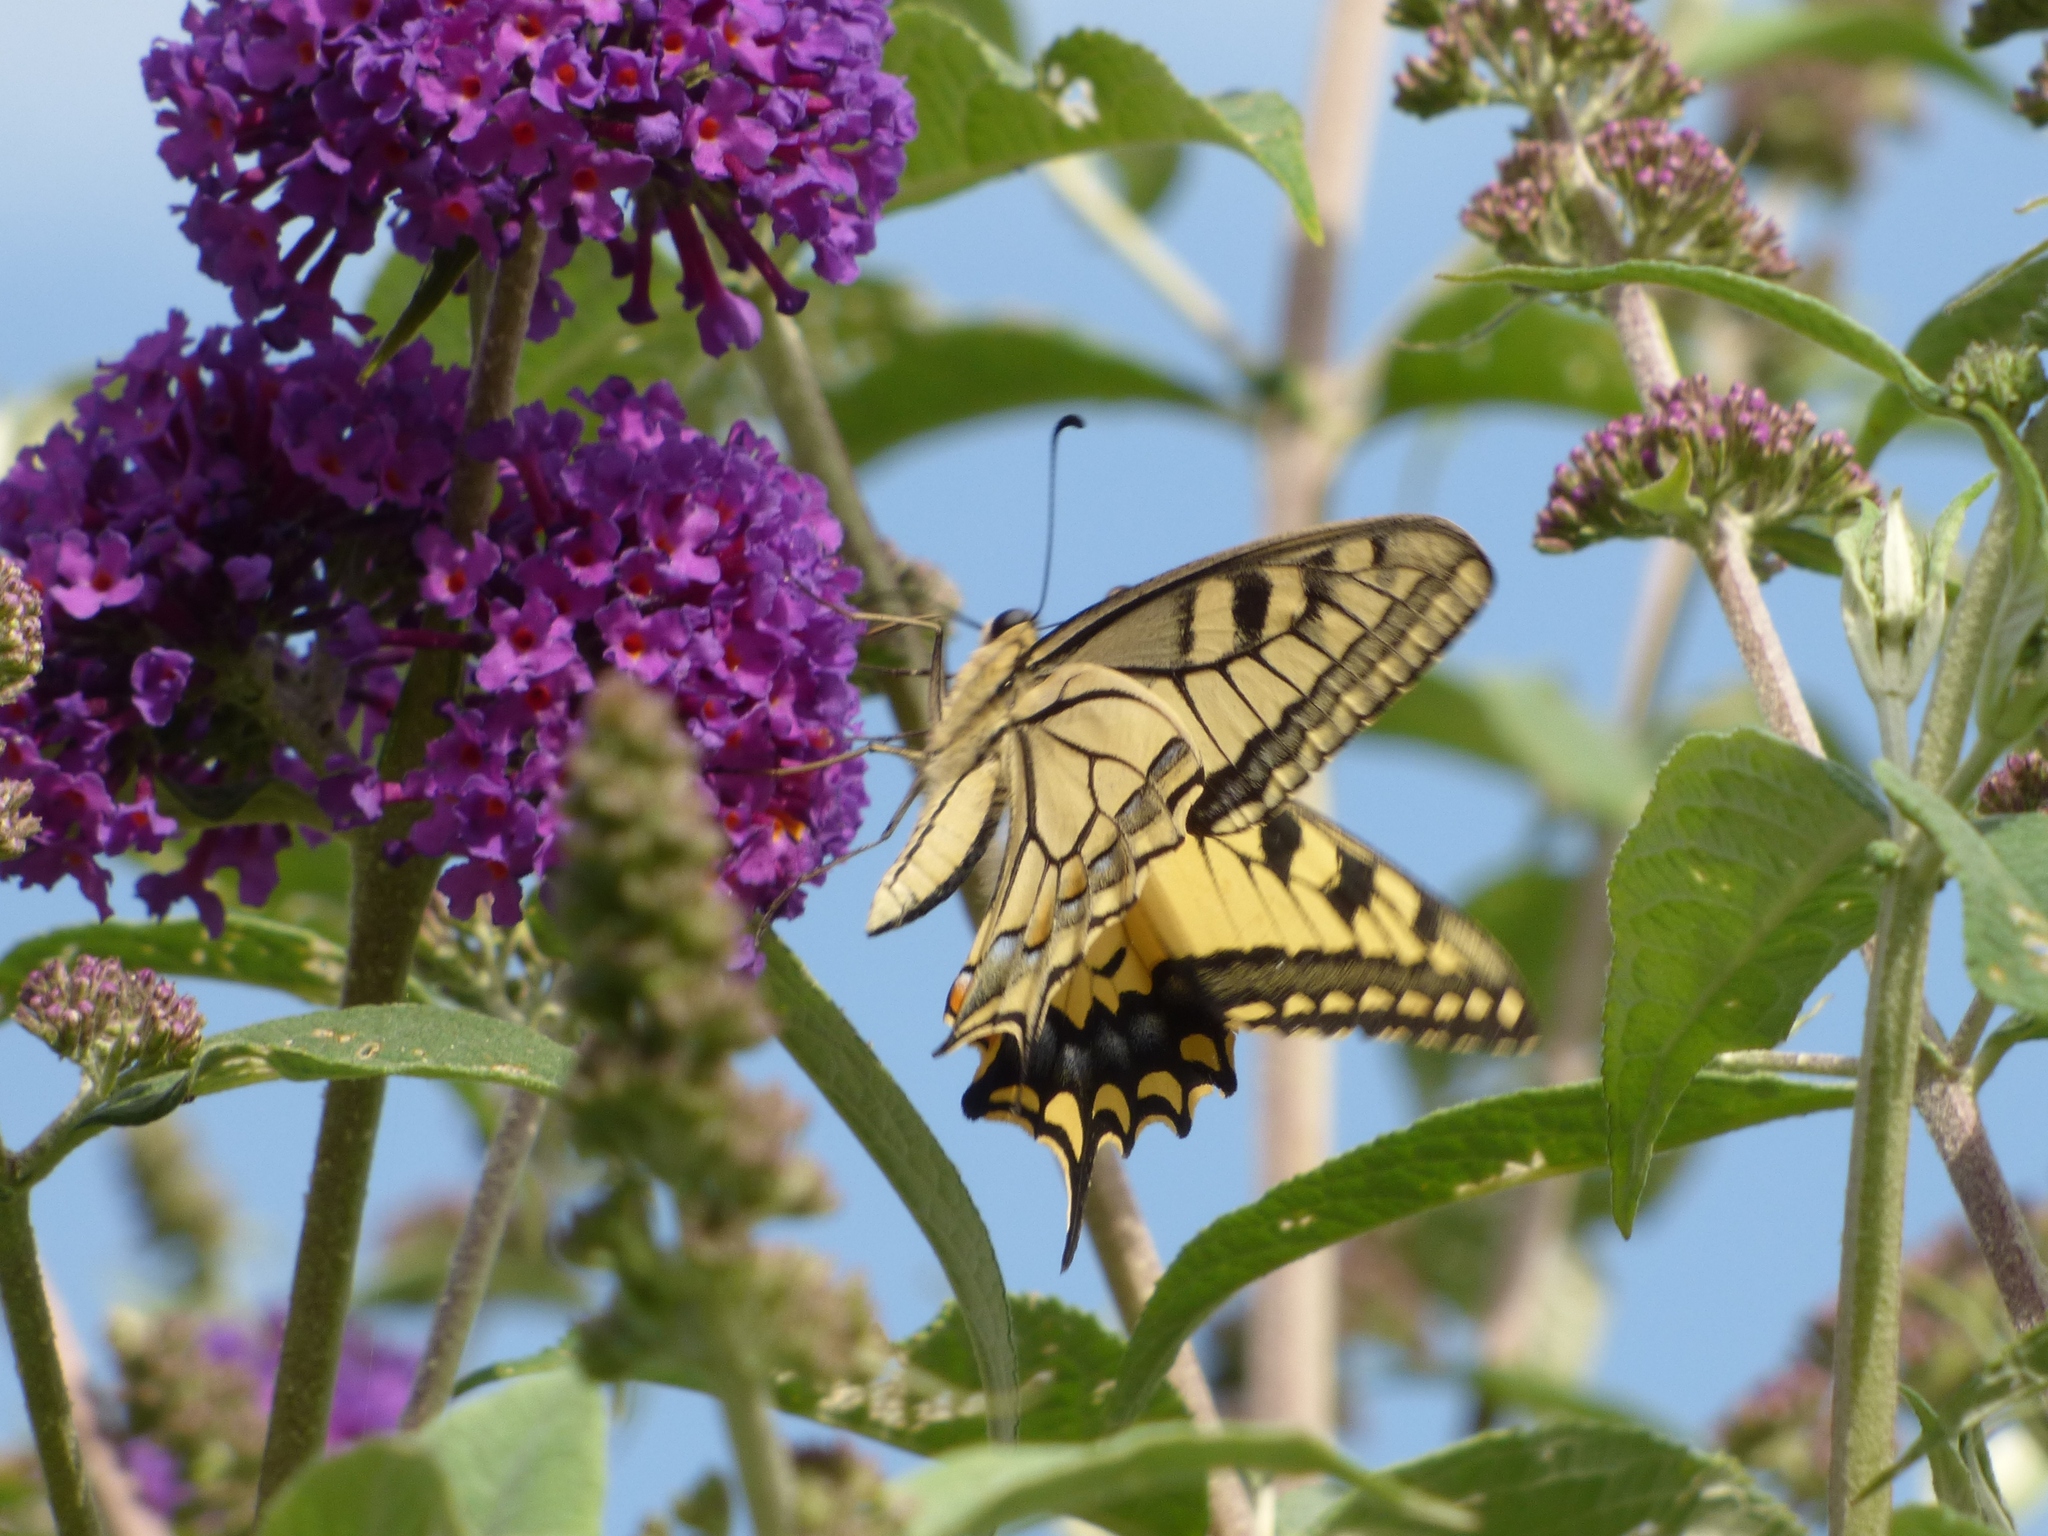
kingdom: Animalia
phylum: Arthropoda
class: Insecta
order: Lepidoptera
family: Papilionidae
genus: Papilio
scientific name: Papilio machaon
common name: Swallowtail
